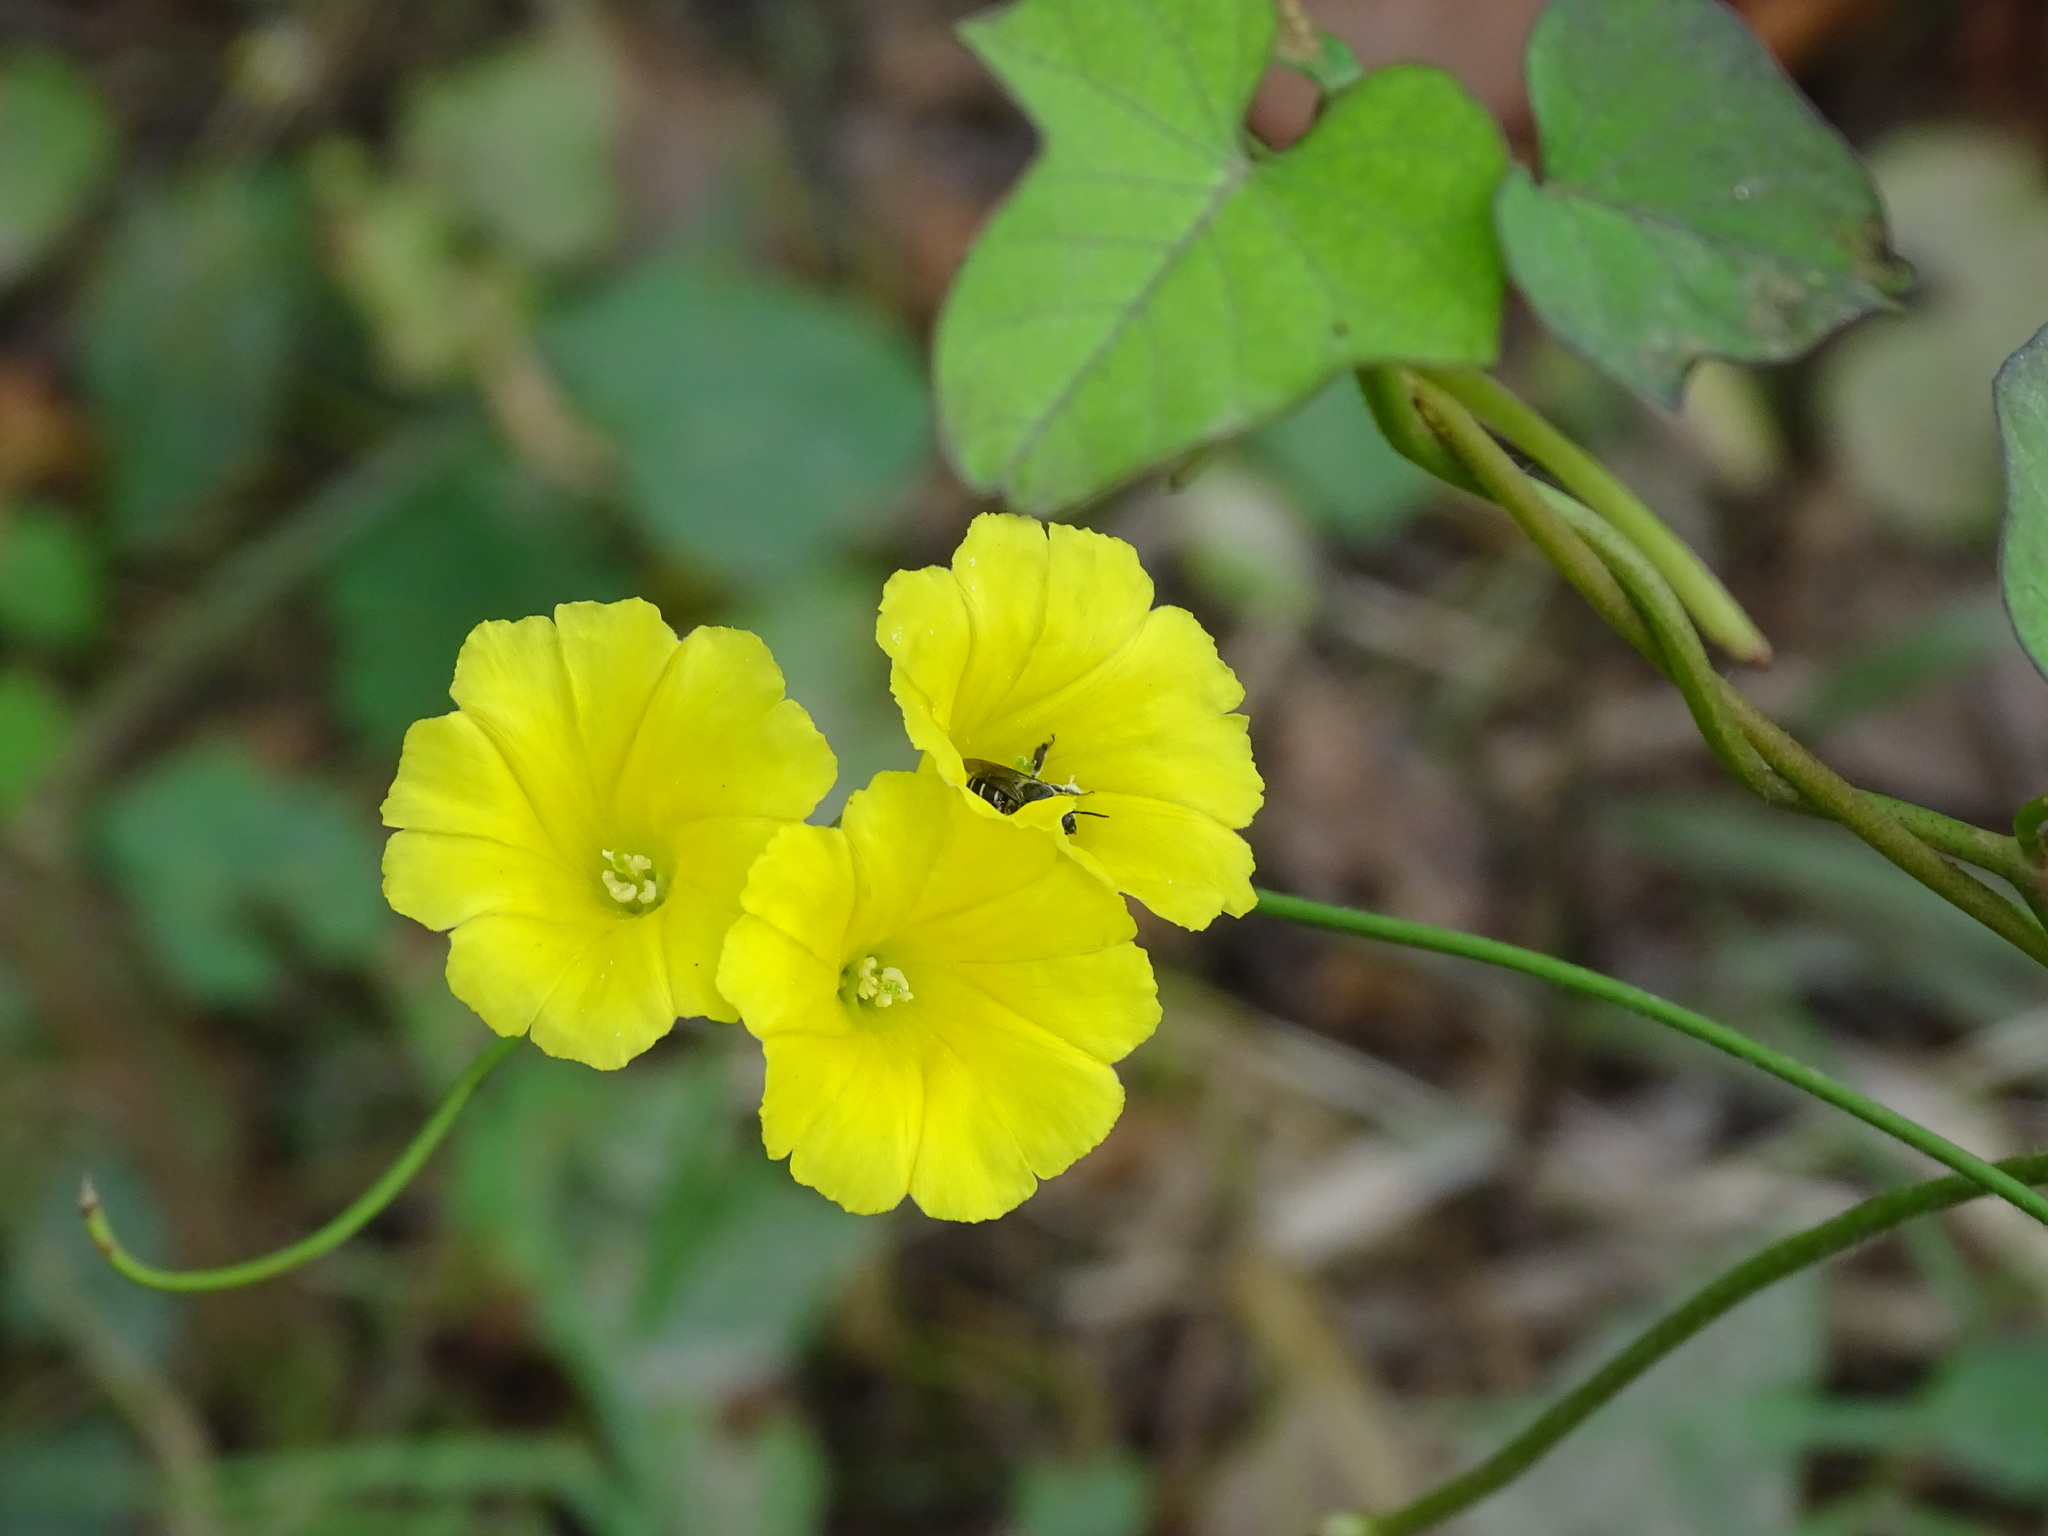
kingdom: Plantae
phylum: Tracheophyta
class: Magnoliopsida
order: Solanales
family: Convolvulaceae
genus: Camonea
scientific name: Camonea umbellata
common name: Hogvine
